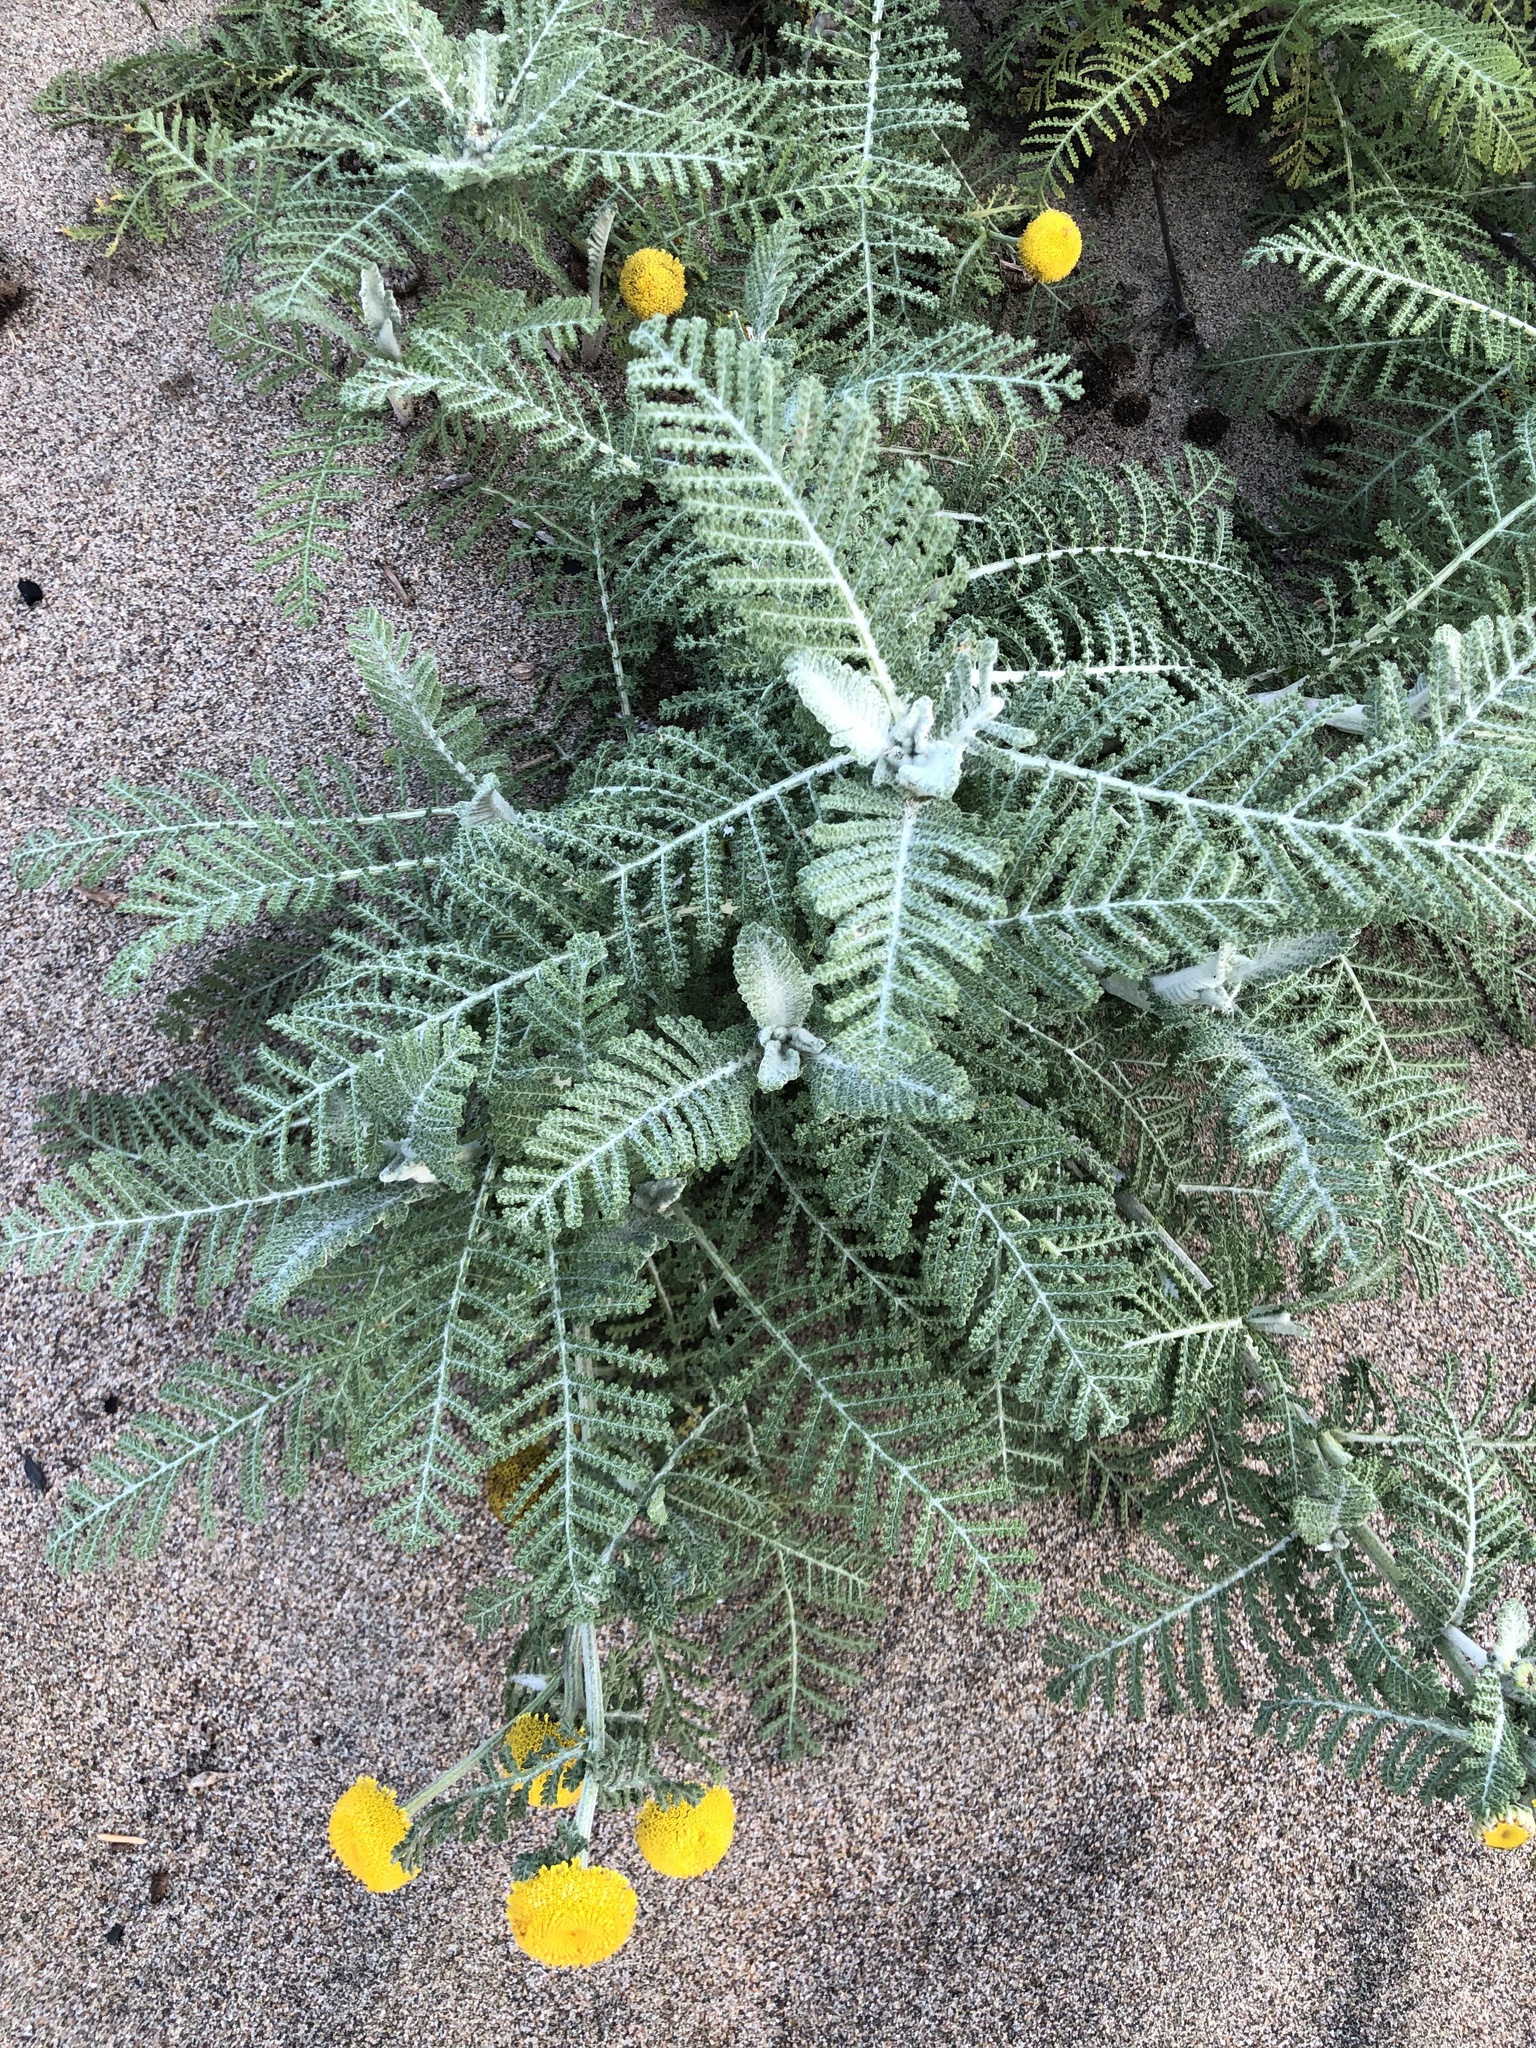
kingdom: Plantae
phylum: Tracheophyta
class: Magnoliopsida
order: Asterales
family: Asteraceae
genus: Tanacetum
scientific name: Tanacetum bipinnatum
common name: Dwarf tansy
